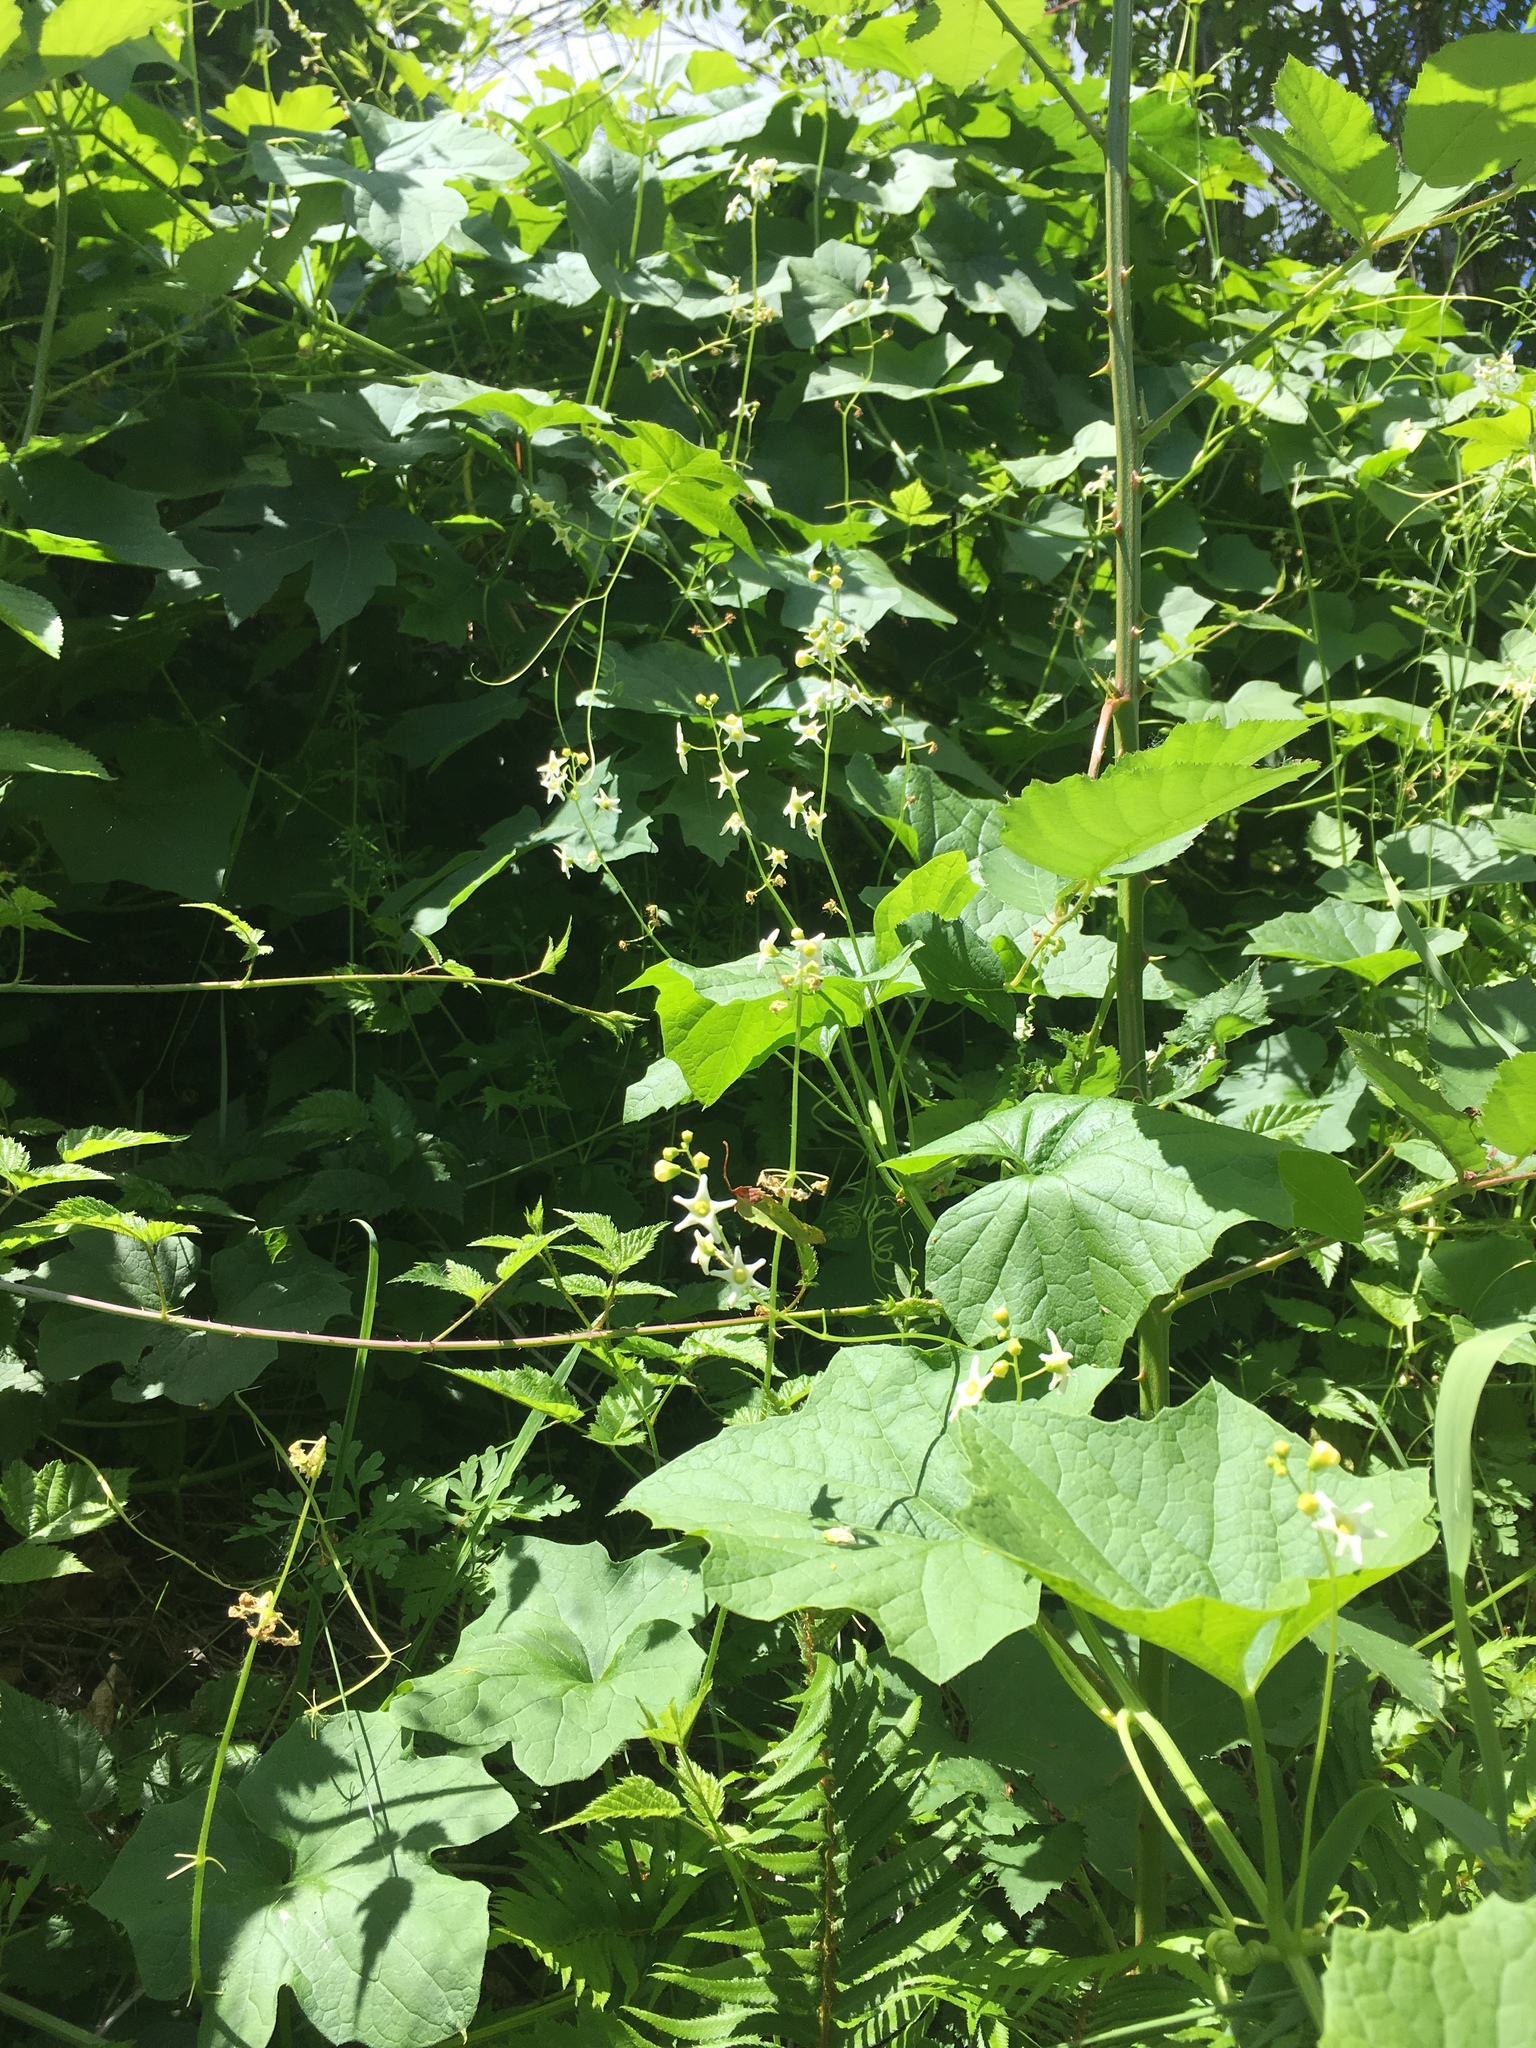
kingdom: Plantae
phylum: Tracheophyta
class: Magnoliopsida
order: Cucurbitales
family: Cucurbitaceae
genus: Marah
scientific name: Marah oregana
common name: Coastal manroot
